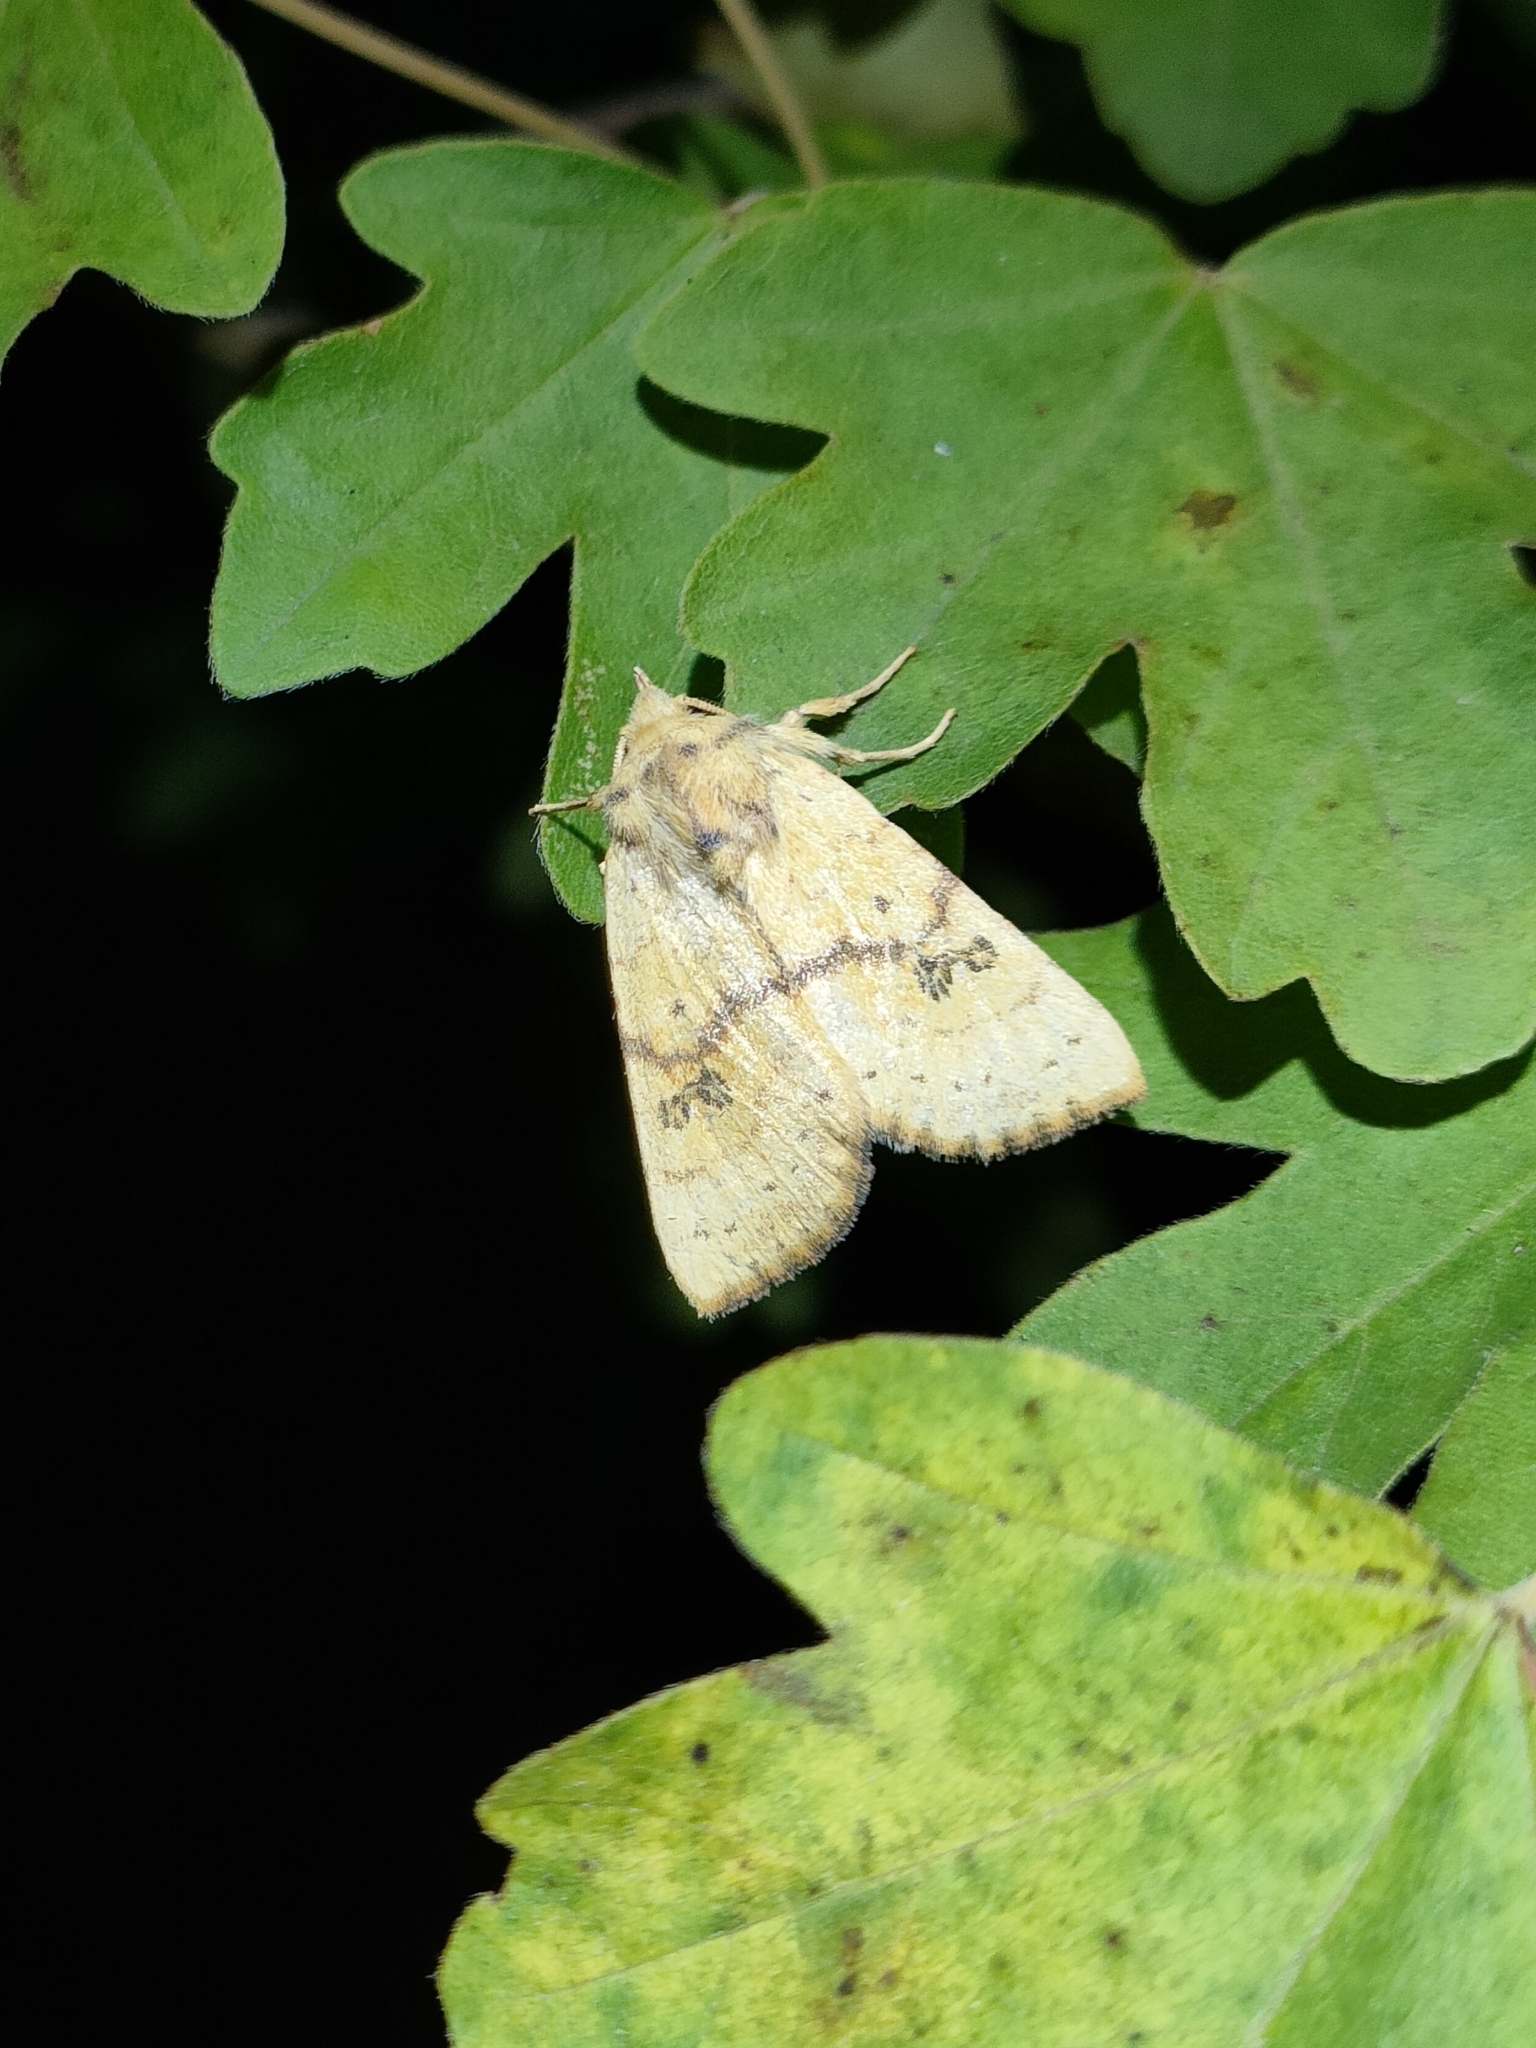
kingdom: Animalia
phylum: Arthropoda
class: Insecta
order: Lepidoptera
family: Noctuidae
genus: Tiliacea
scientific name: Tiliacea sulphurago
